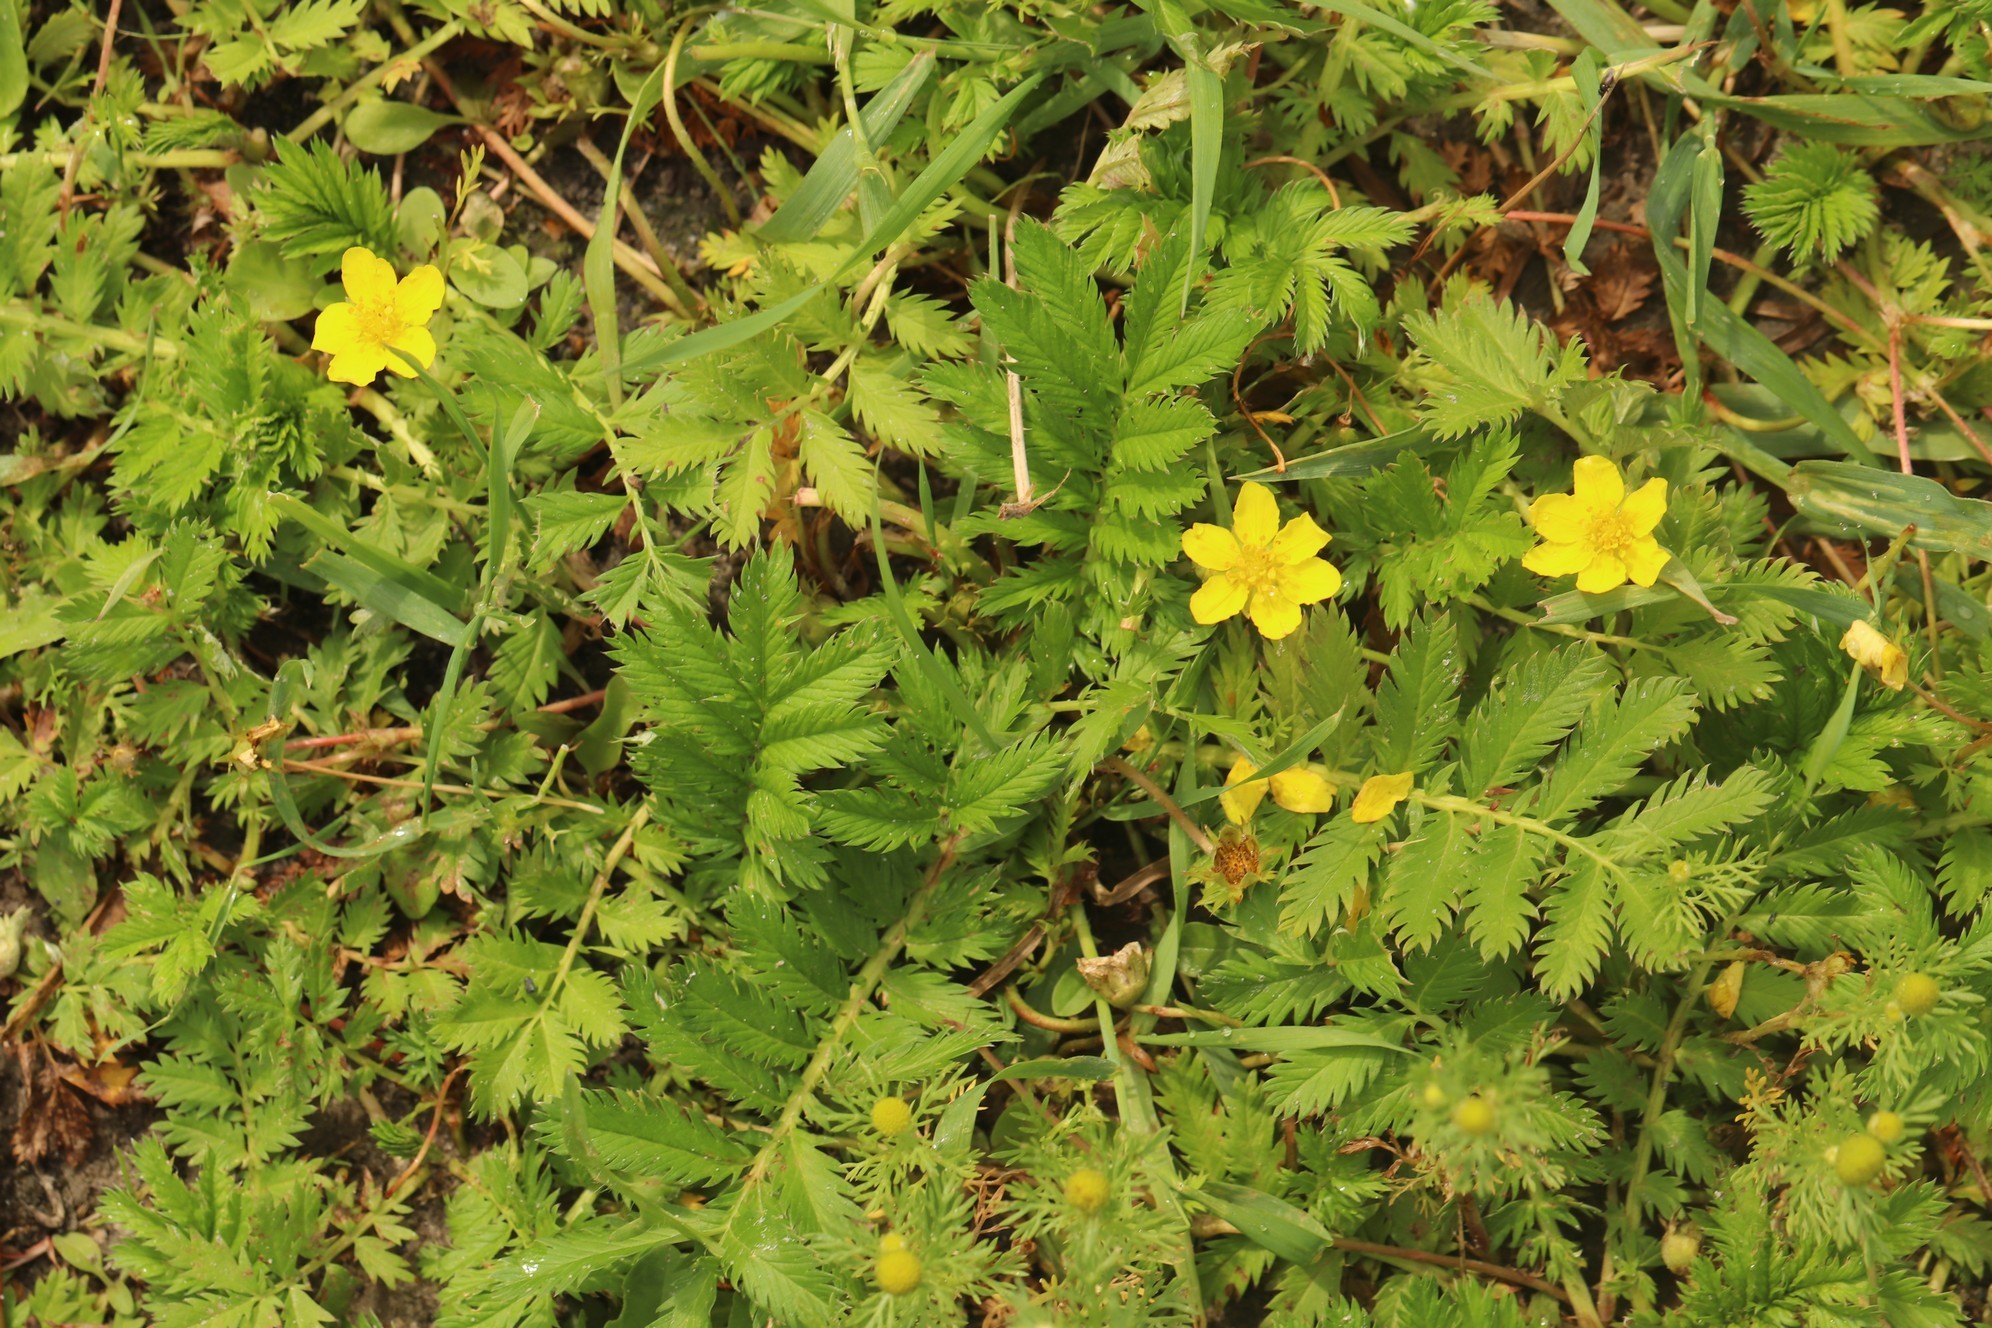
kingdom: Plantae
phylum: Tracheophyta
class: Magnoliopsida
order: Rosales
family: Rosaceae
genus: Argentina
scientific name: Argentina anserina
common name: Common silverweed
